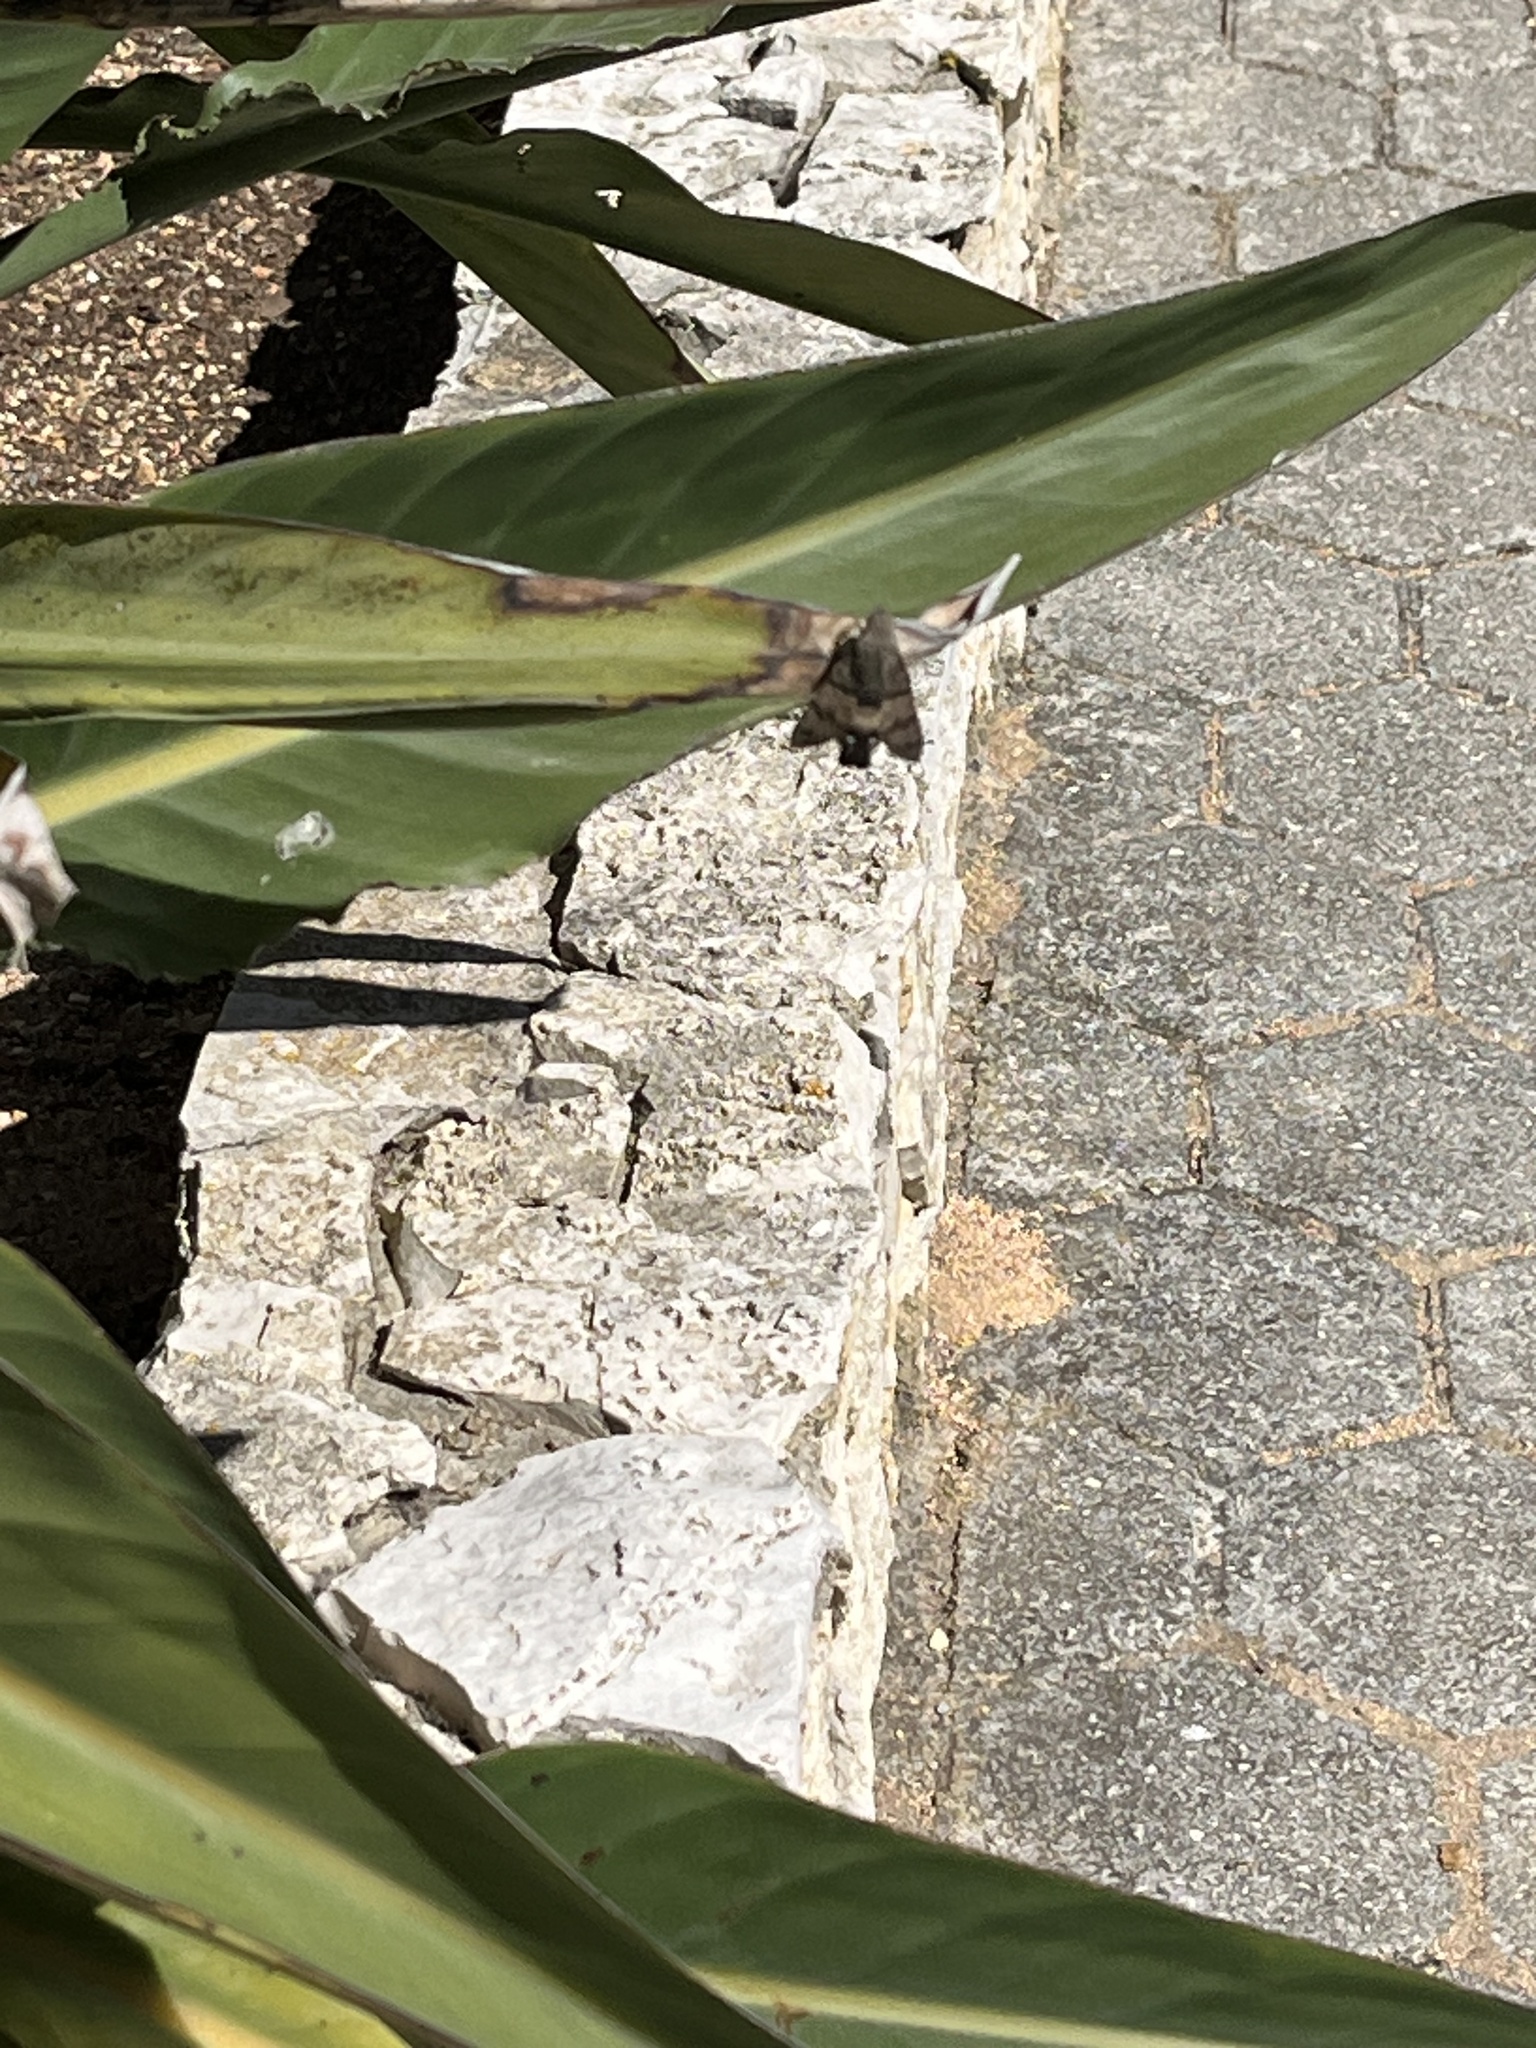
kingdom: Animalia
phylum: Arthropoda
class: Insecta
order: Lepidoptera
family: Sphingidae
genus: Macroglossum
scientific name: Macroglossum stellatarum
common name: Humming-bird hawk-moth
